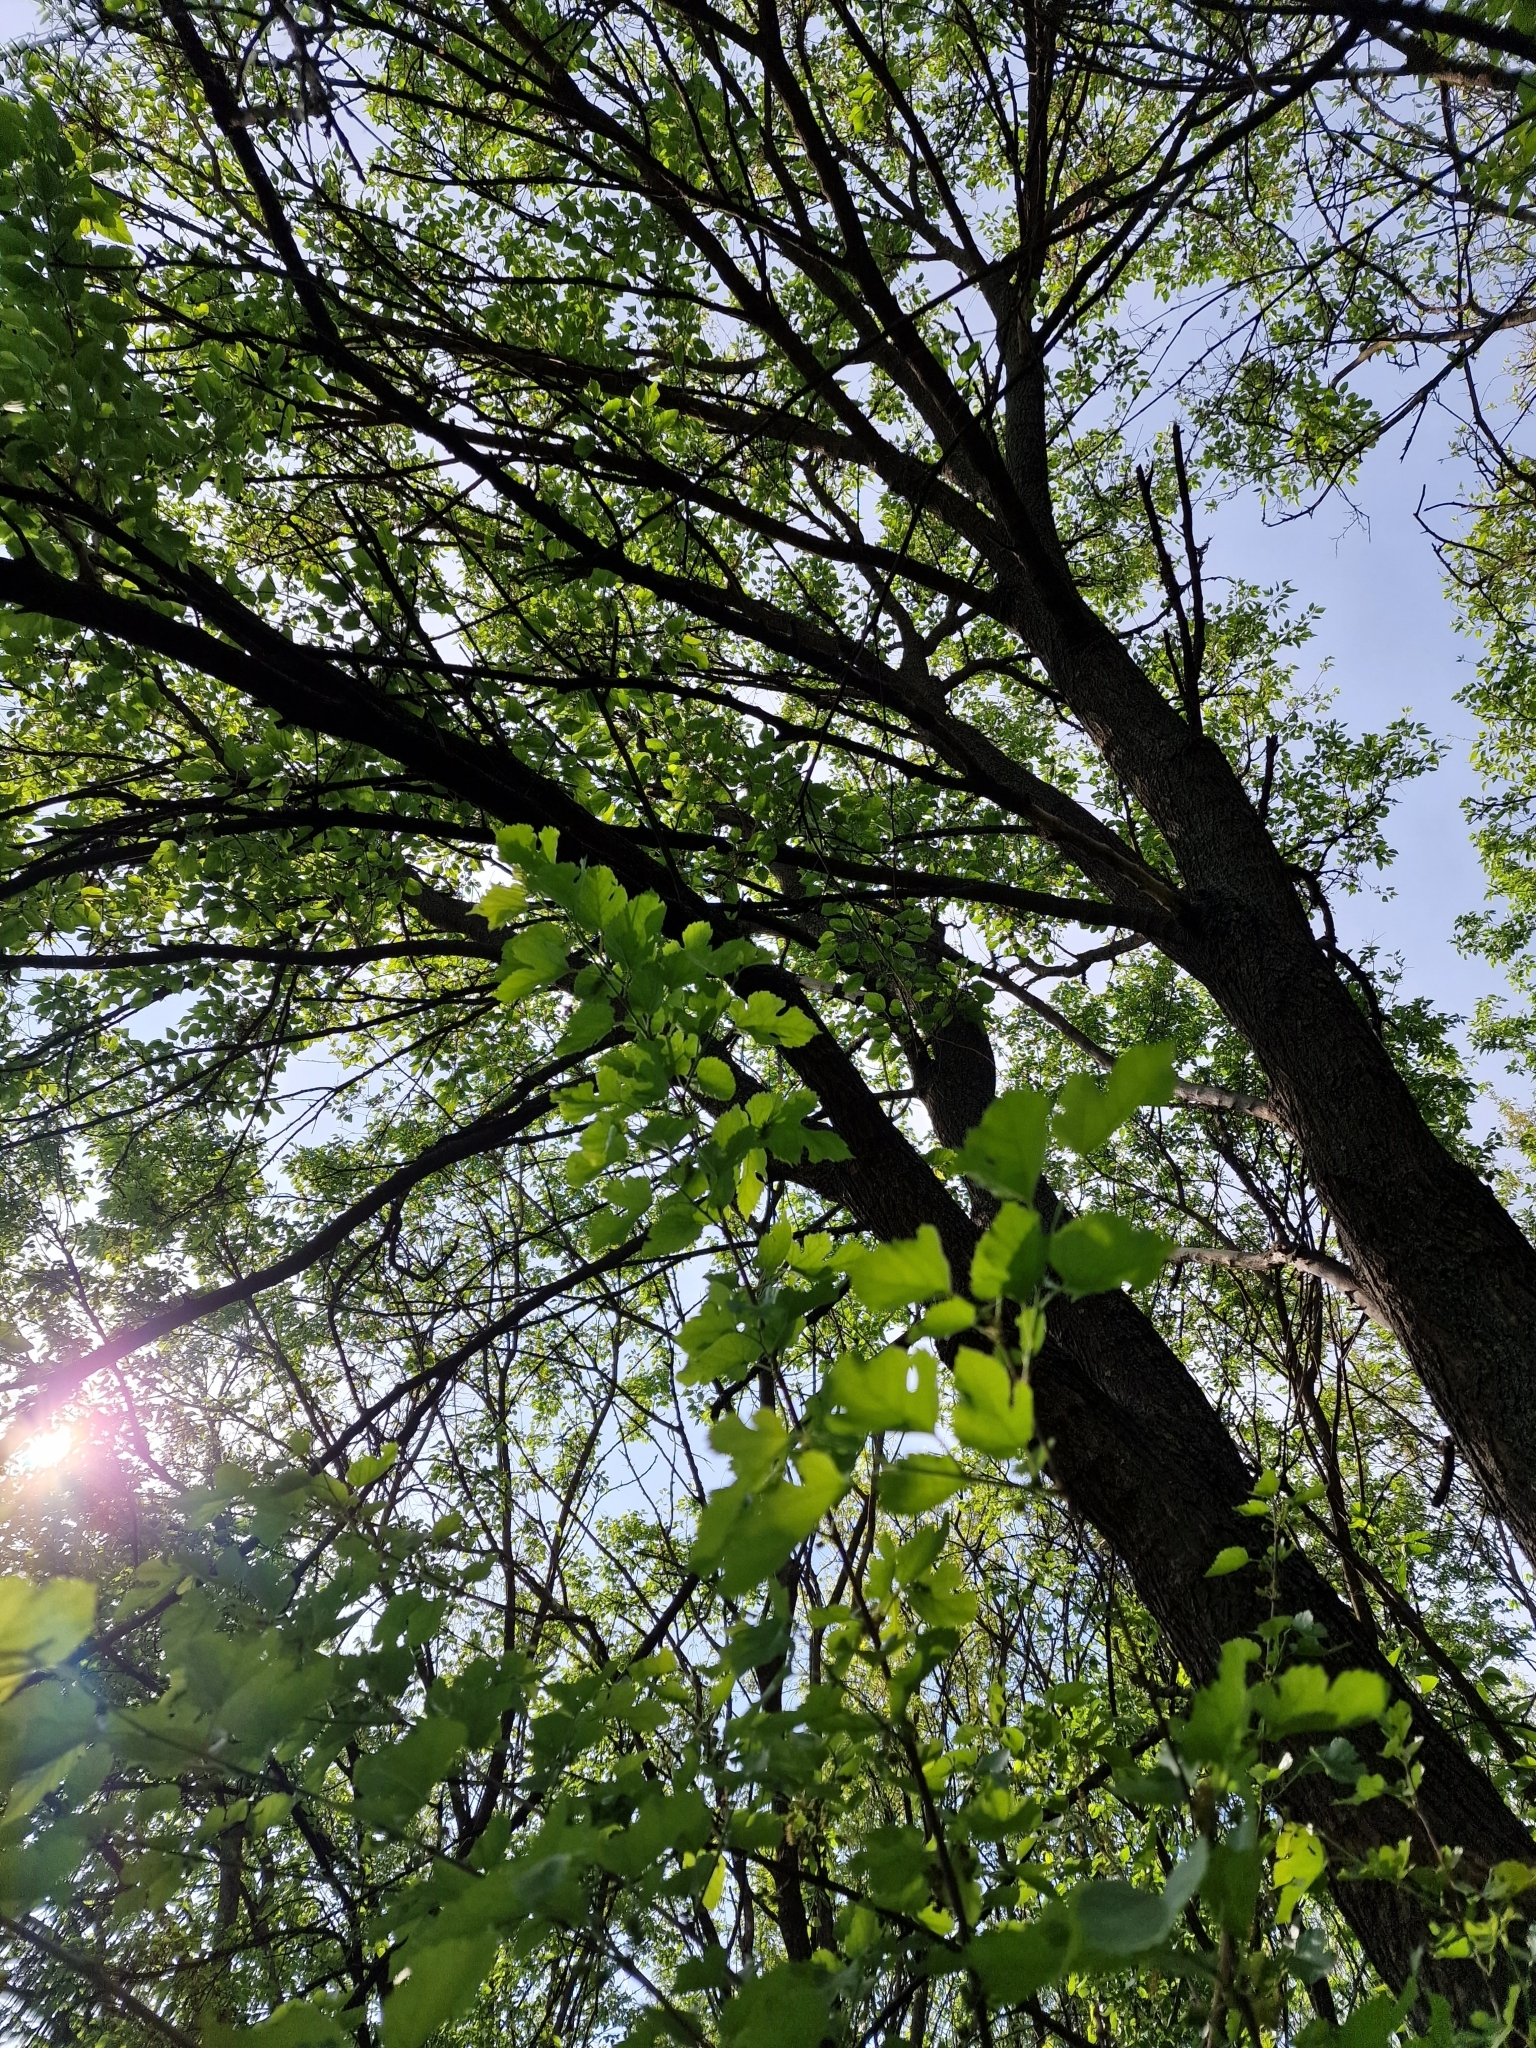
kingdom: Plantae
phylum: Tracheophyta
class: Magnoliopsida
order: Rosales
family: Moraceae
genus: Morus
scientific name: Morus alba
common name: White mulberry
